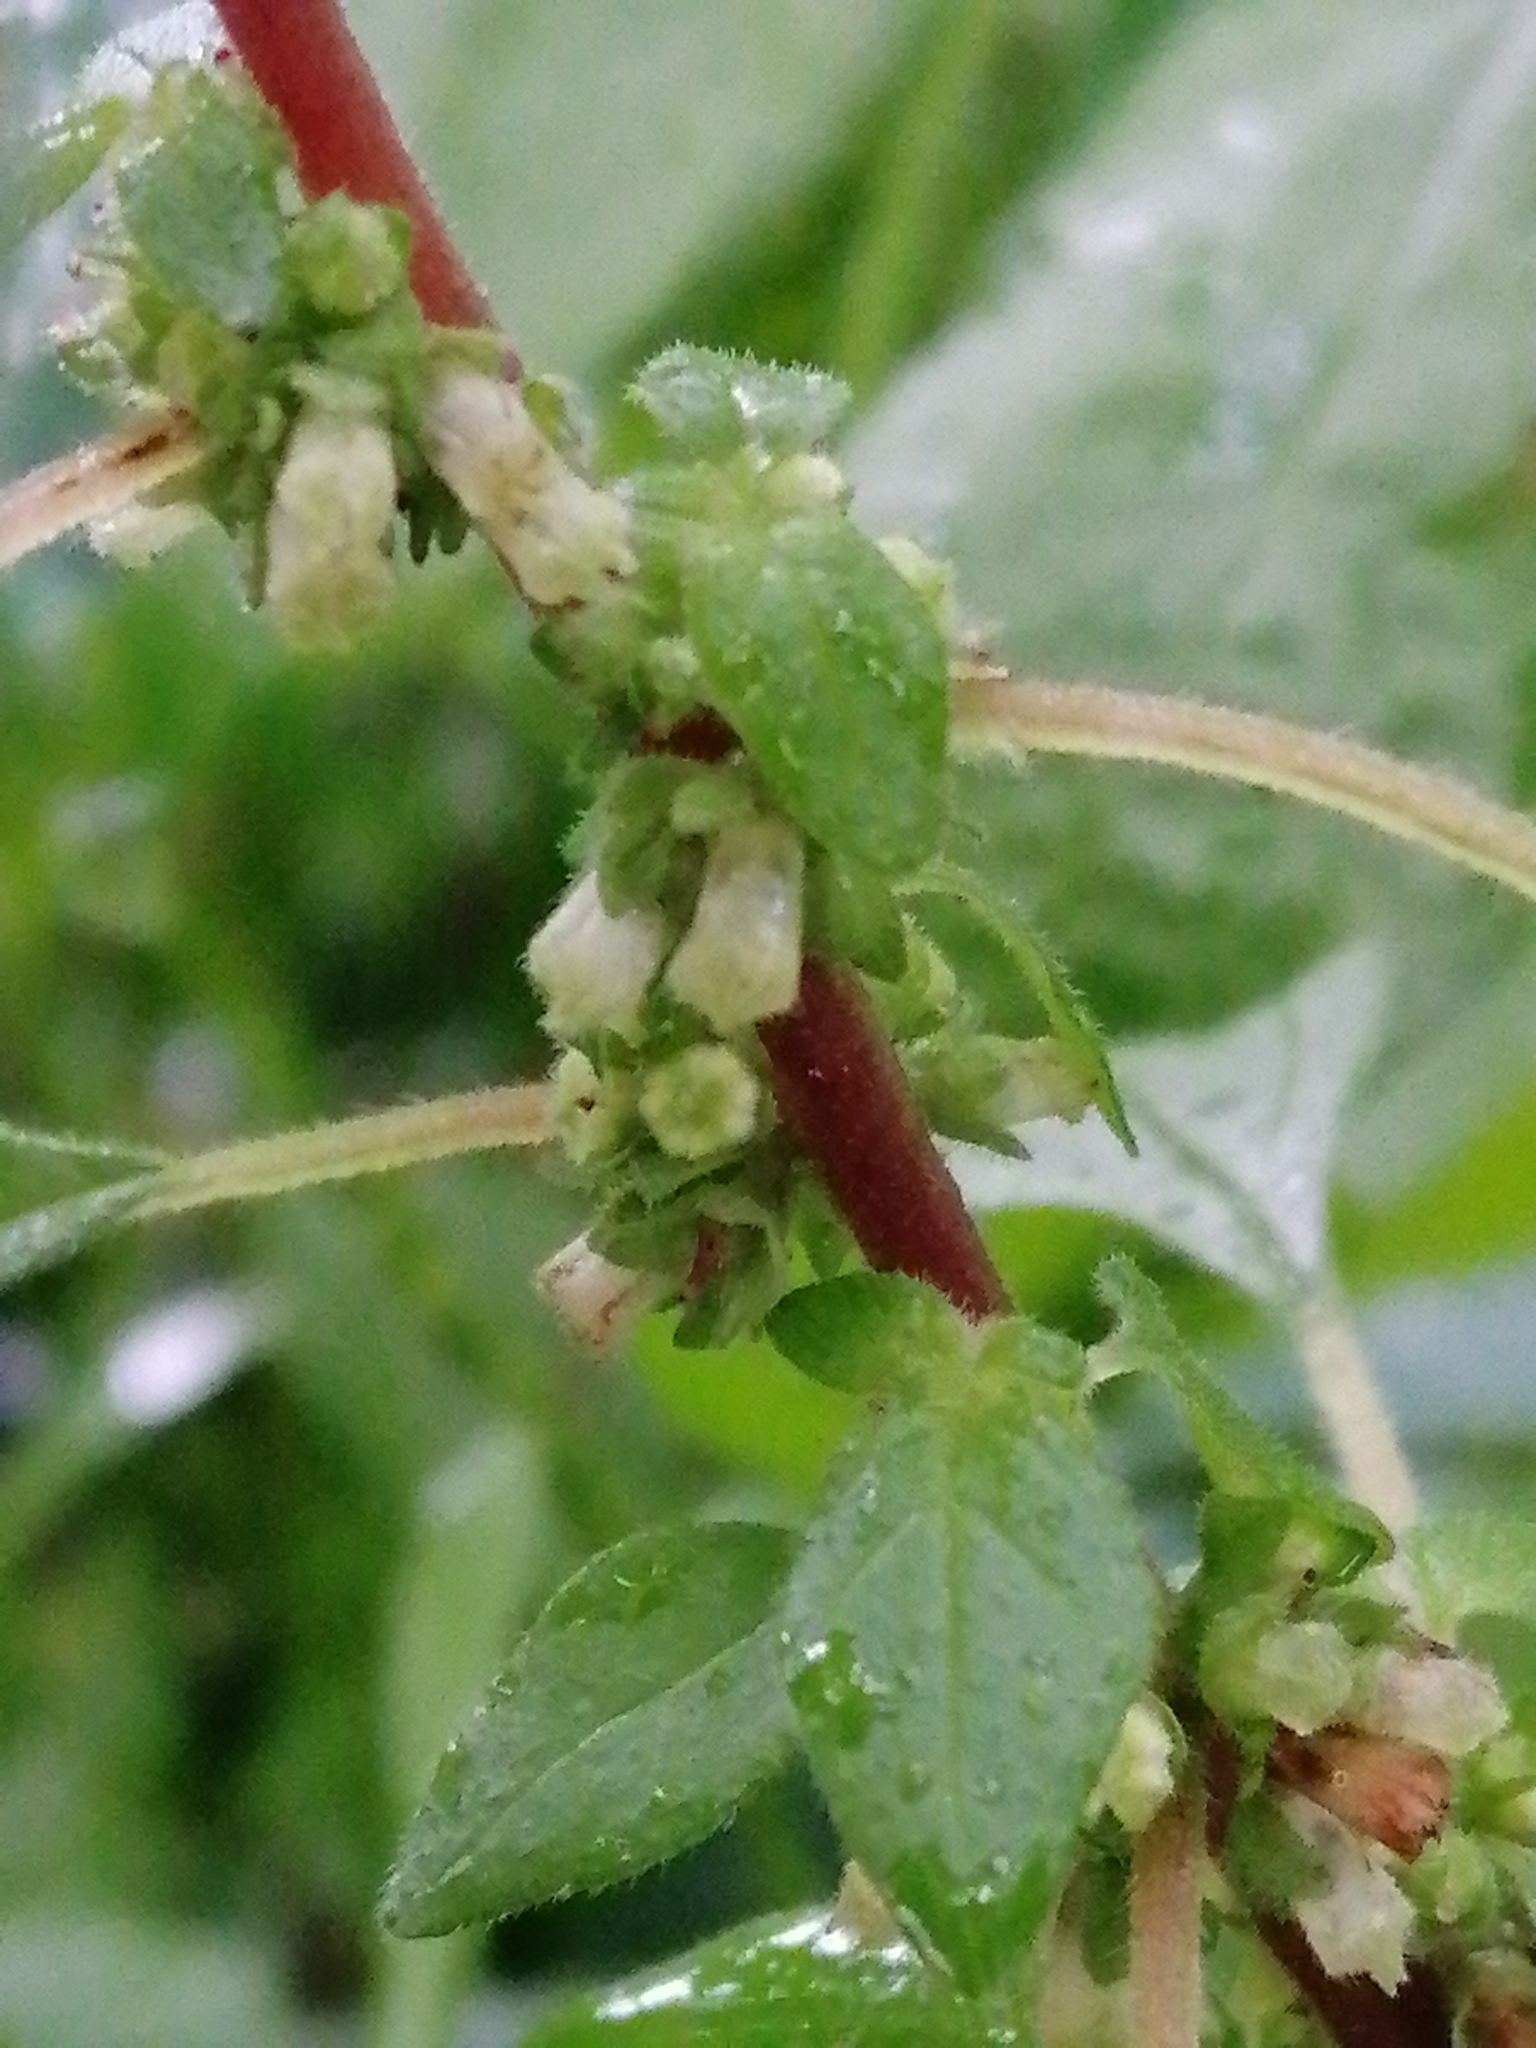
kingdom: Plantae
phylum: Tracheophyta
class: Magnoliopsida
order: Rosales
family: Urticaceae
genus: Parietaria
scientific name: Parietaria judaica
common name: Pellitory-of-the-wall
